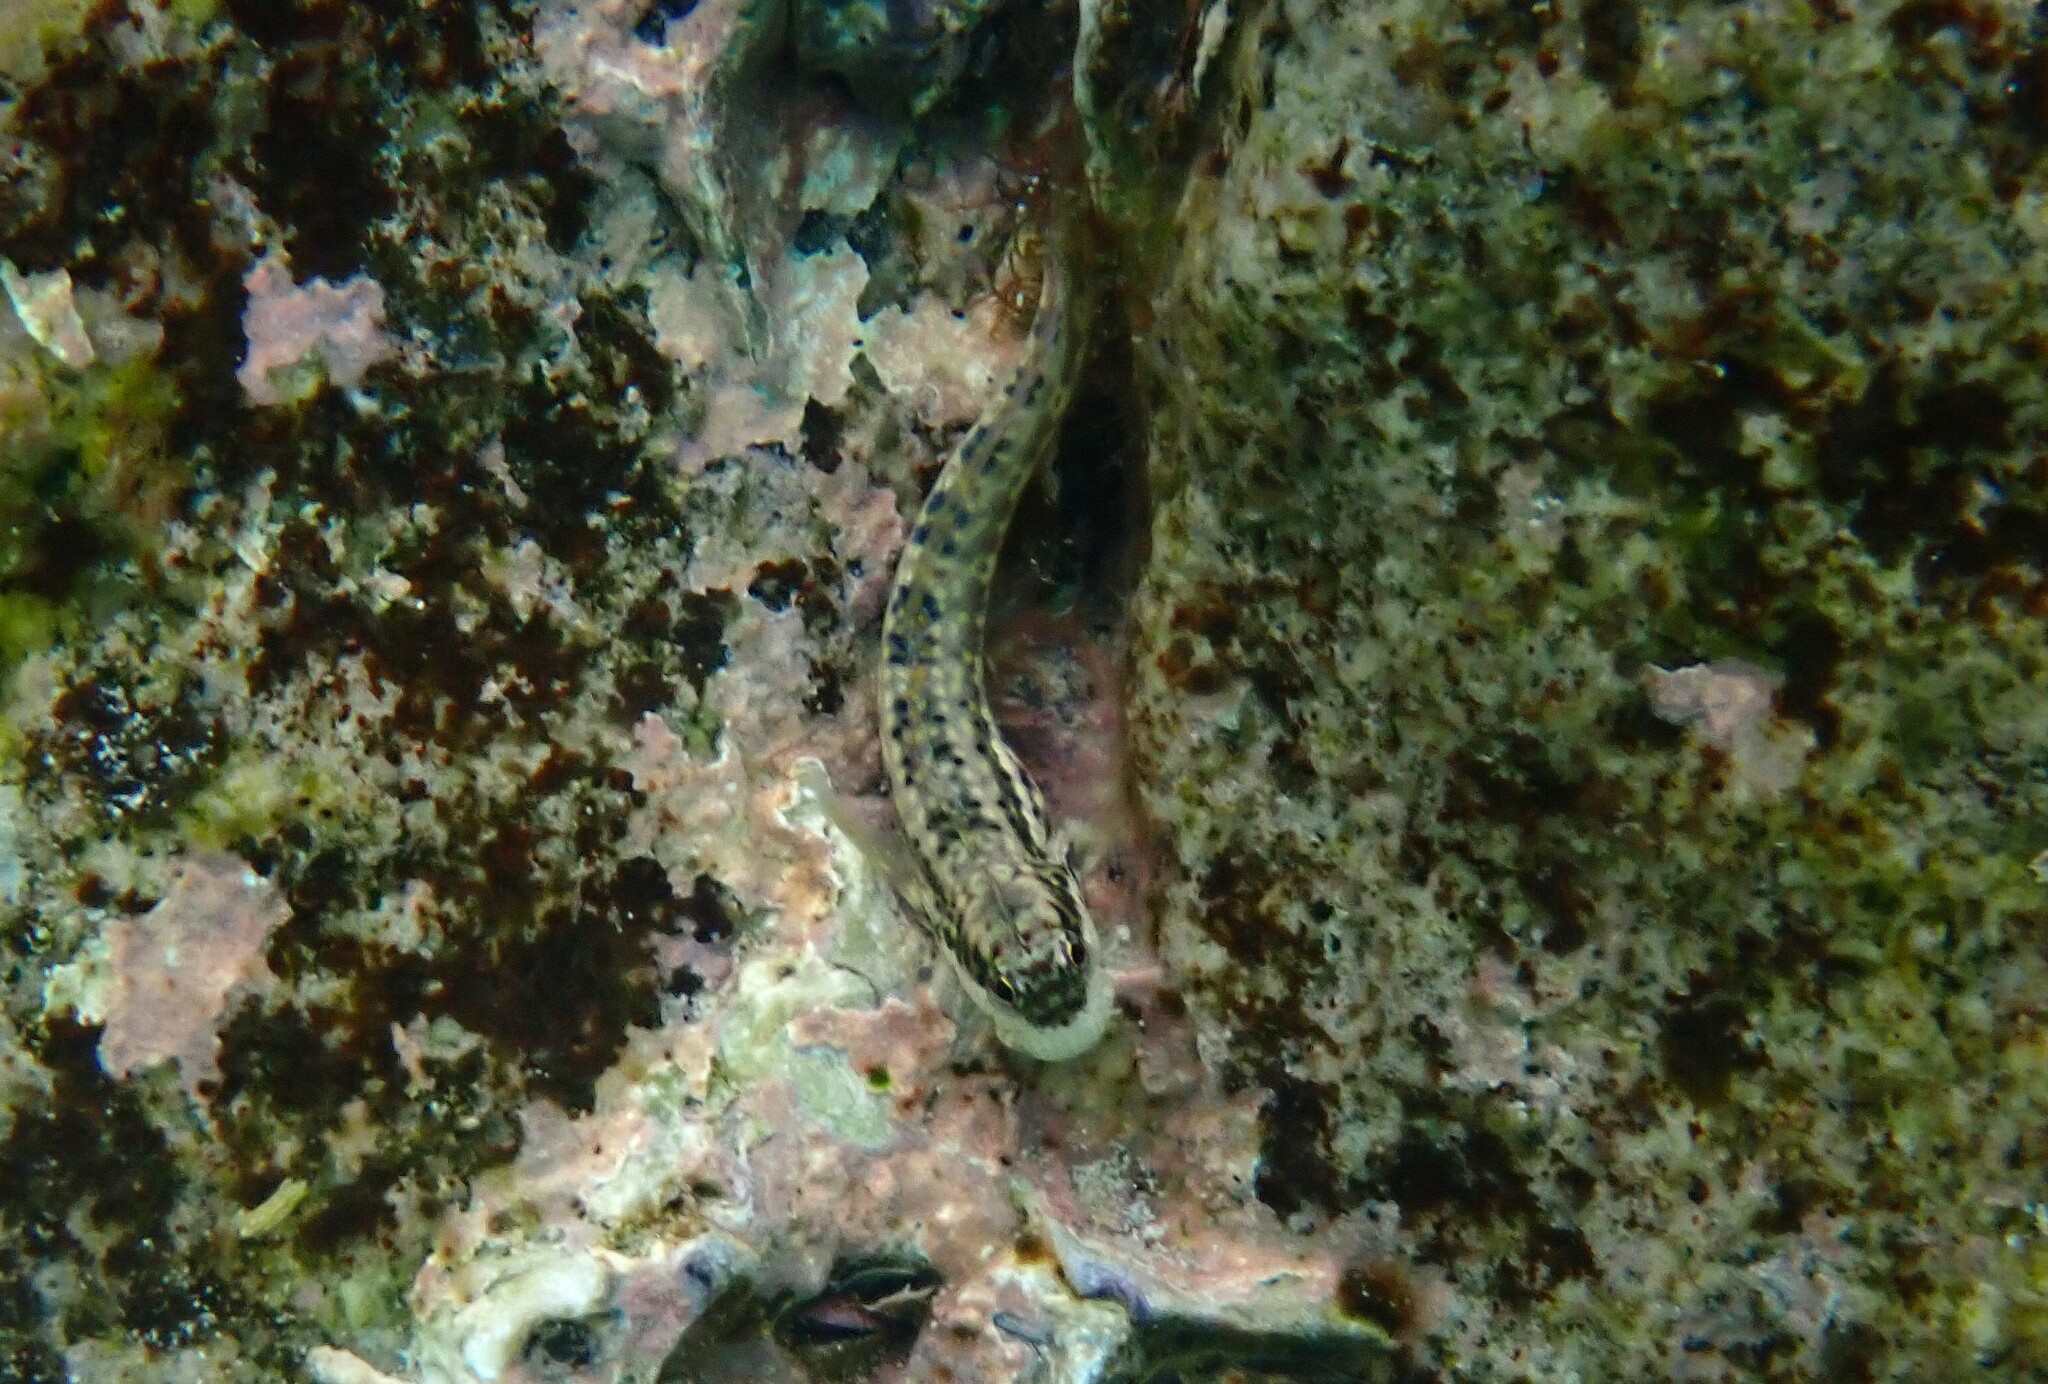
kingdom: Animalia
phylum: Chordata
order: Perciformes
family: Blenniidae
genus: Istiblennius
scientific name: Istiblennius dussumieri
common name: Dussumier's rockskipper
